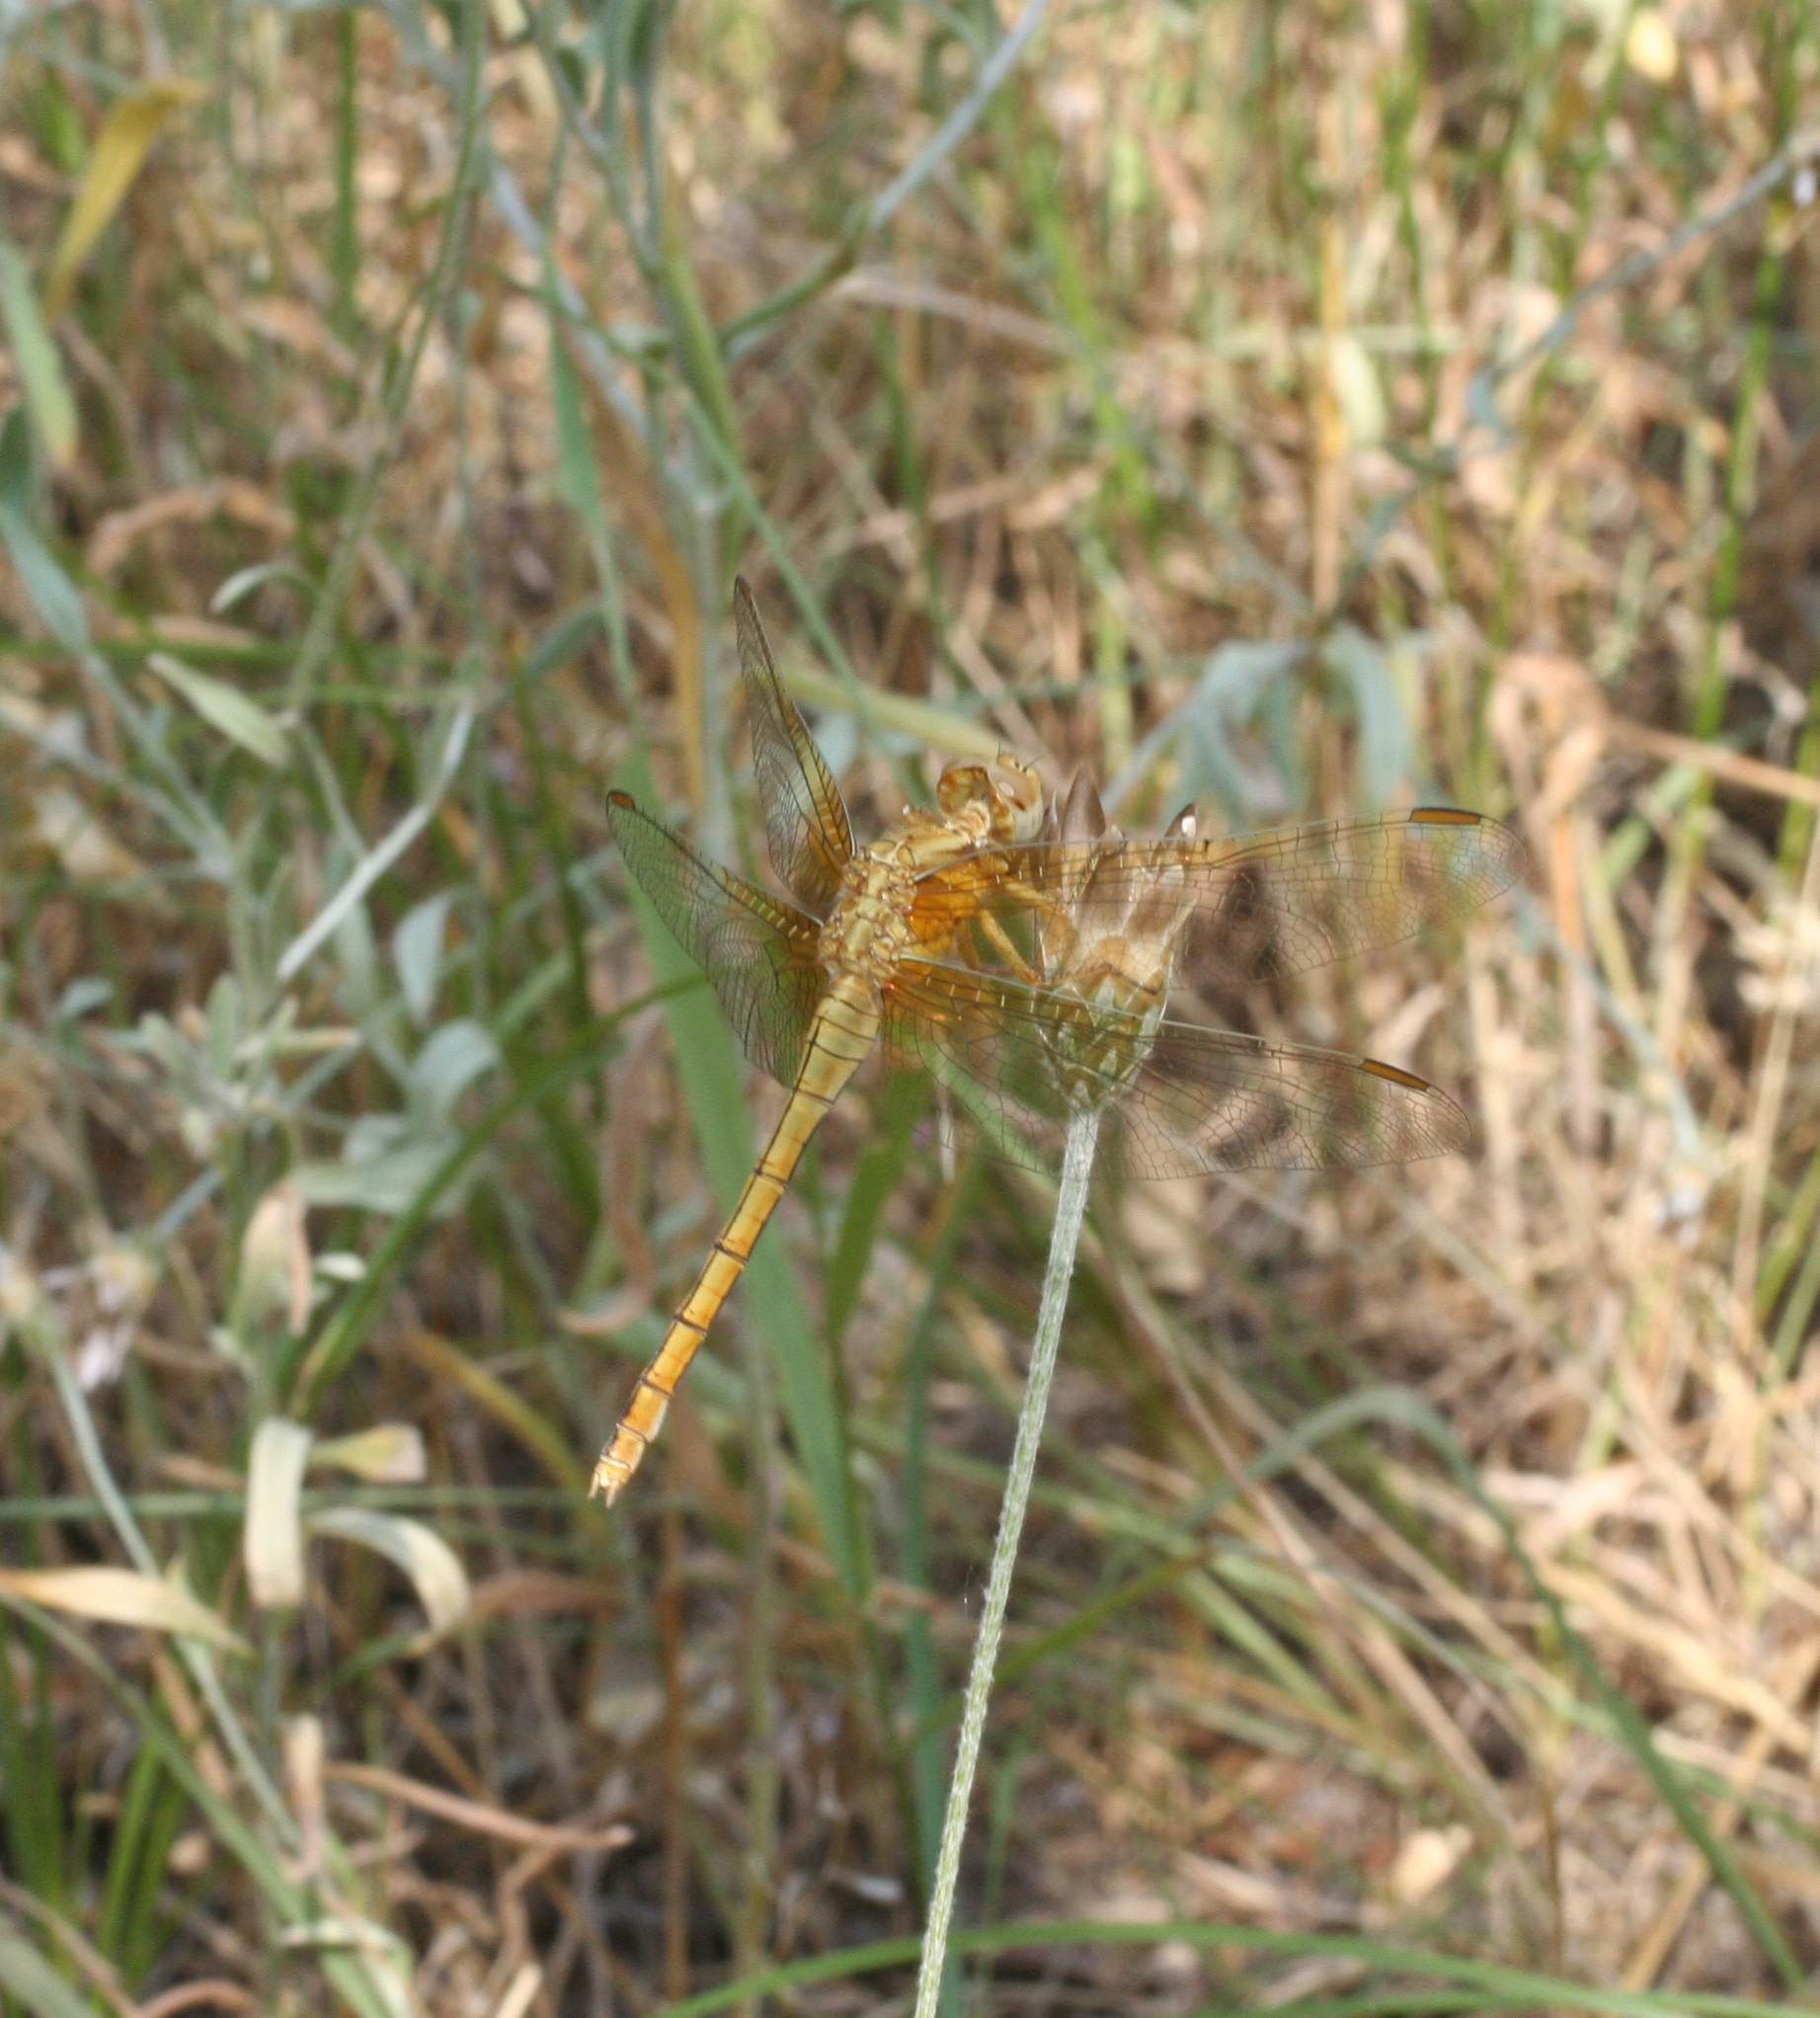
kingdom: Animalia
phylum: Arthropoda
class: Insecta
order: Odonata
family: Libellulidae
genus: Orthetrum
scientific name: Orthetrum coerulescens
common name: Keeled skimmer
